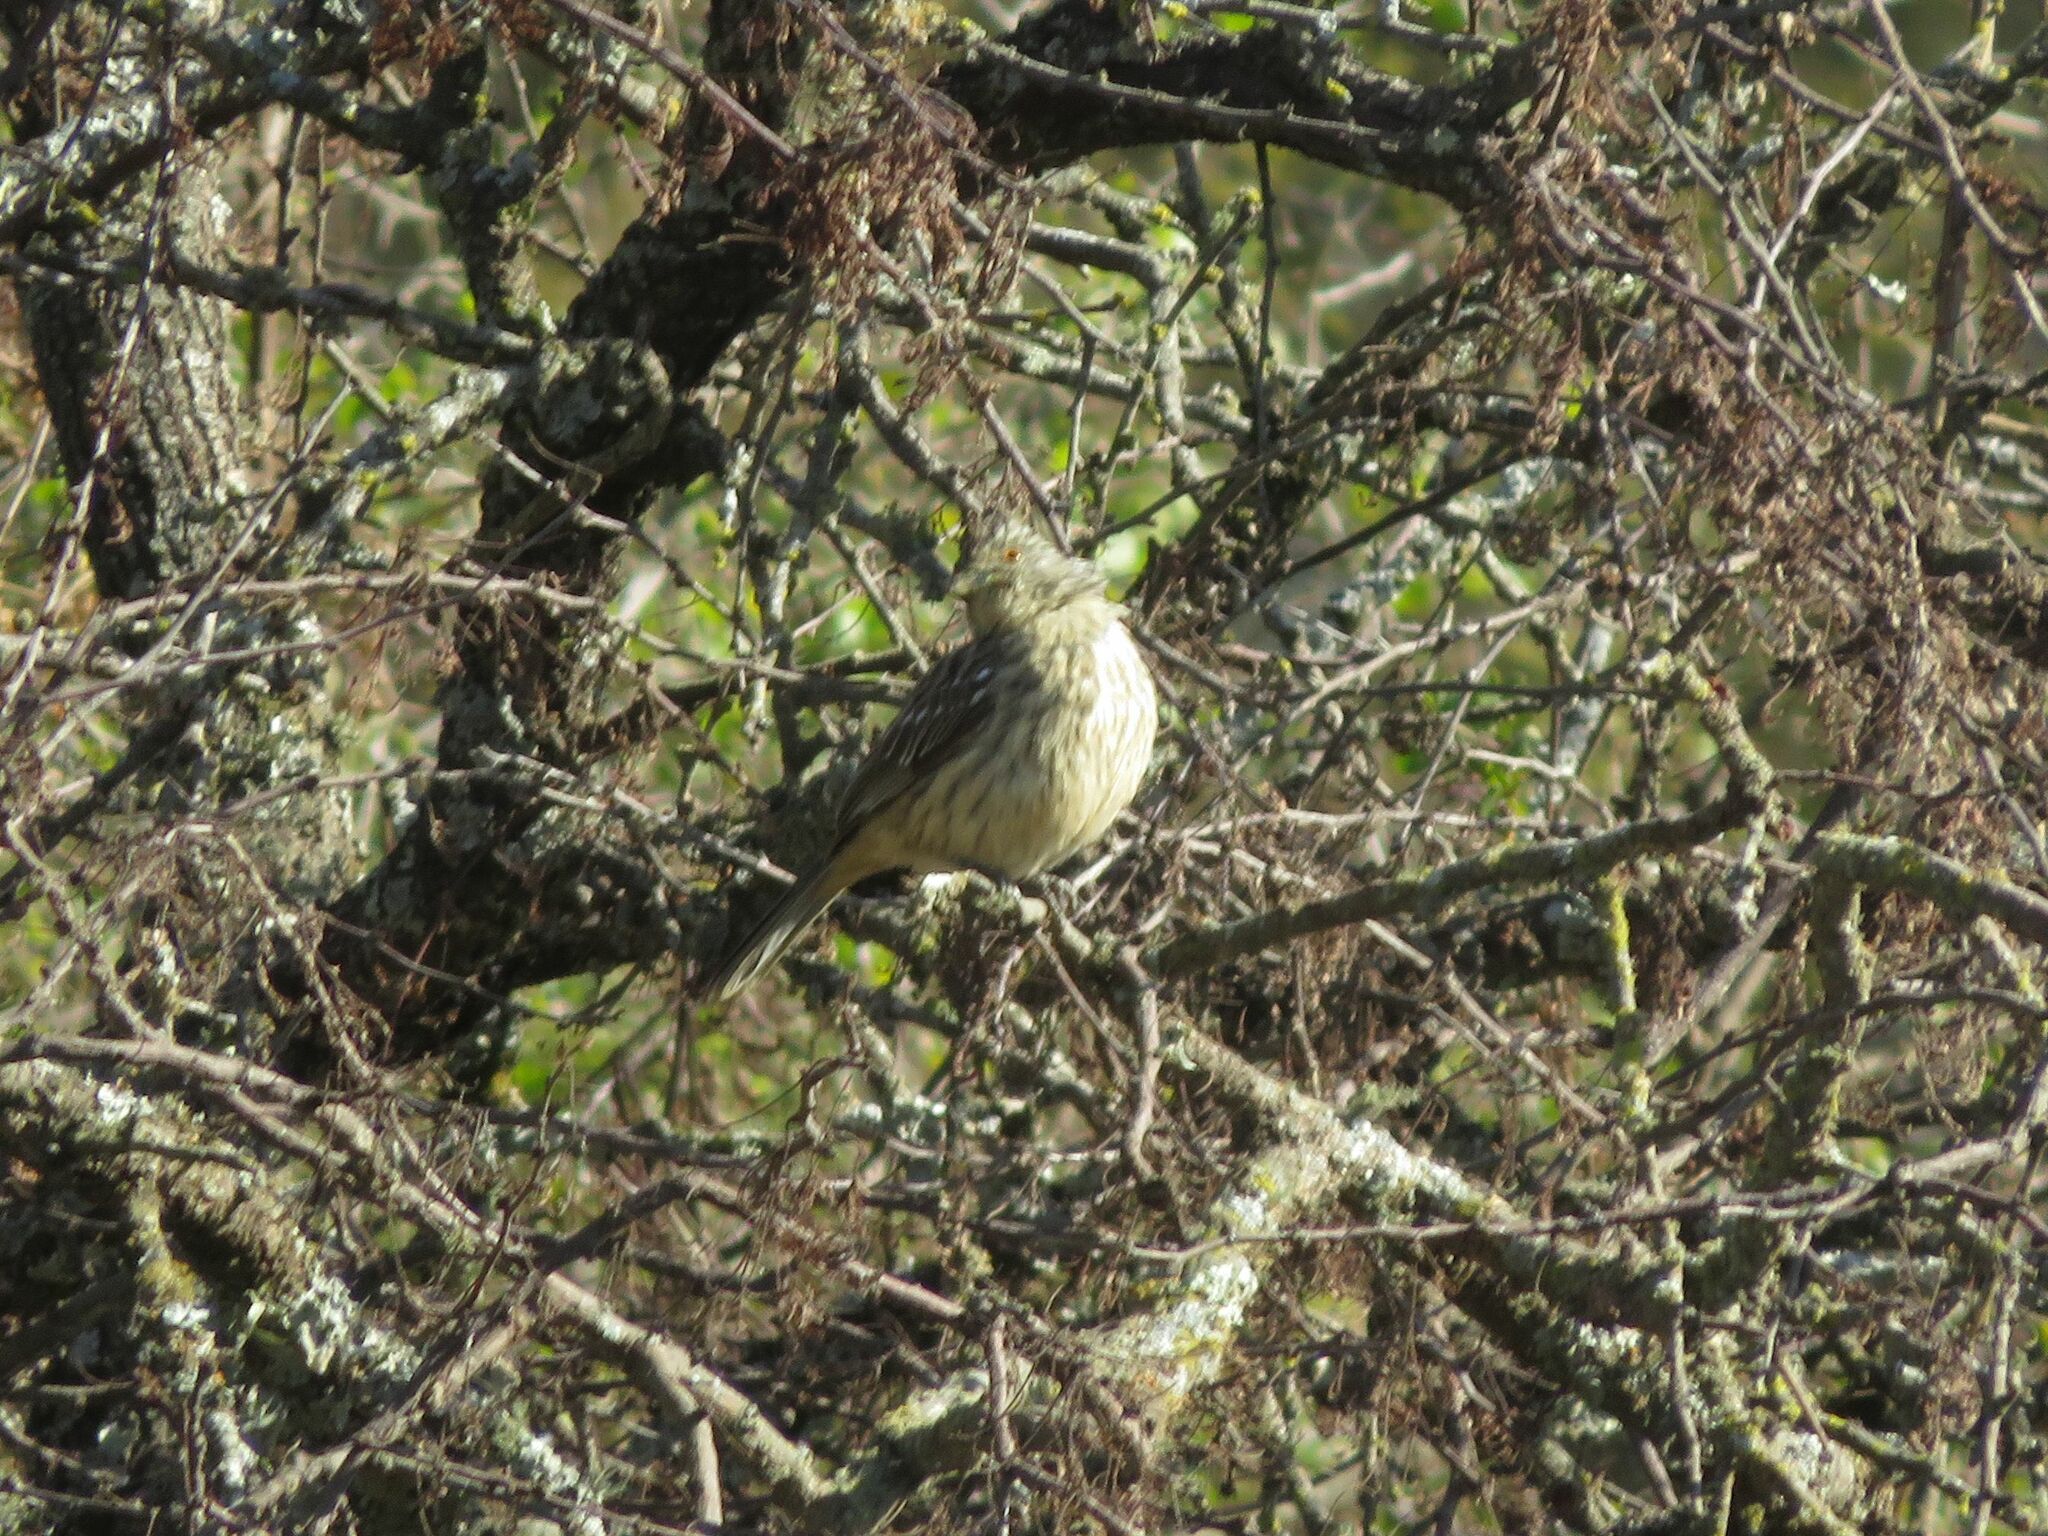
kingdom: Animalia
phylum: Chordata
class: Aves
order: Passeriformes
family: Cotingidae
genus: Phytotoma
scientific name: Phytotoma rutila
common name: White-tipped plantcutter
